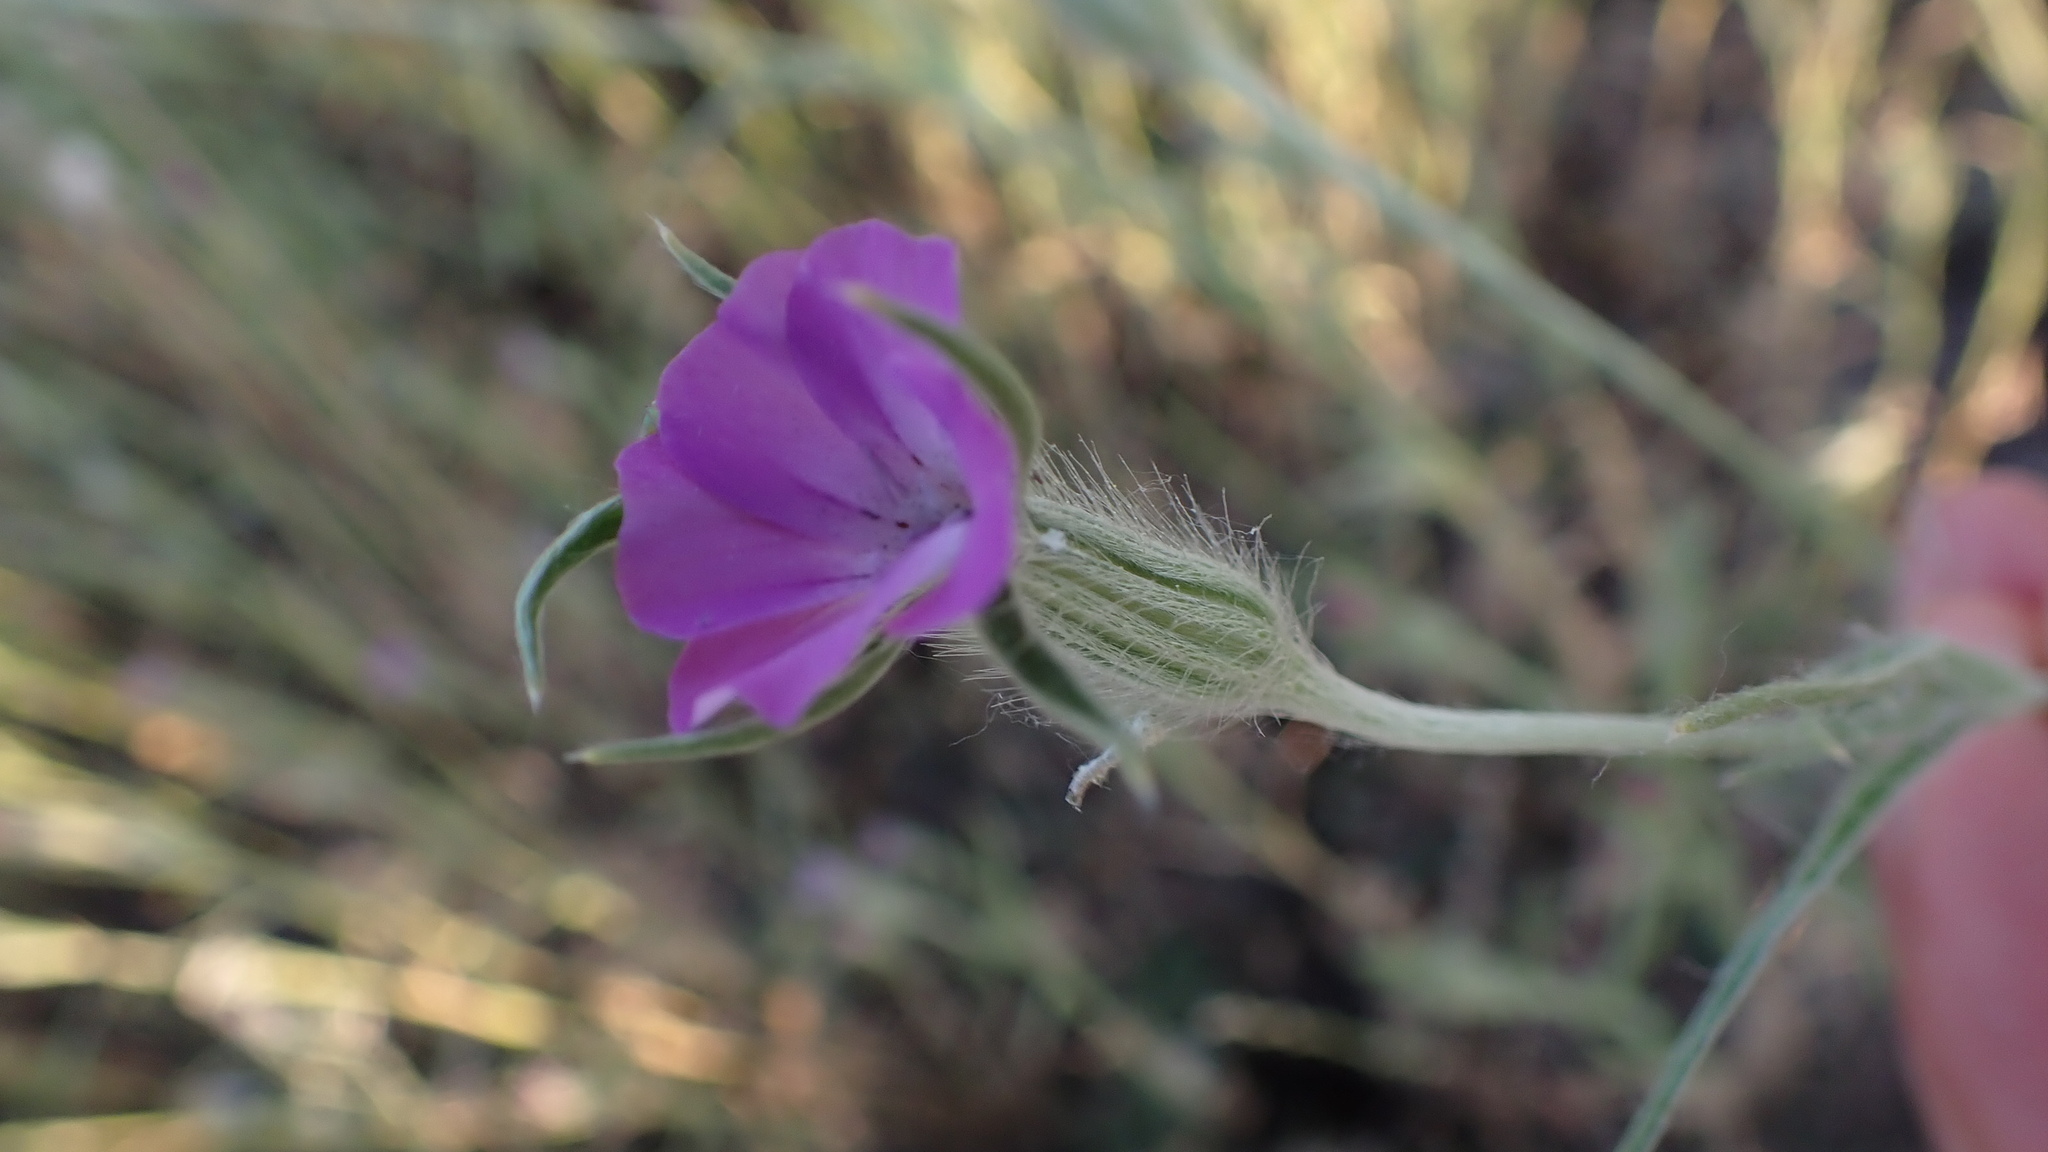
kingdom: Plantae
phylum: Tracheophyta
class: Magnoliopsida
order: Caryophyllales
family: Caryophyllaceae
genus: Agrostemma
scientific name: Agrostemma githago
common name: Common corncockle
